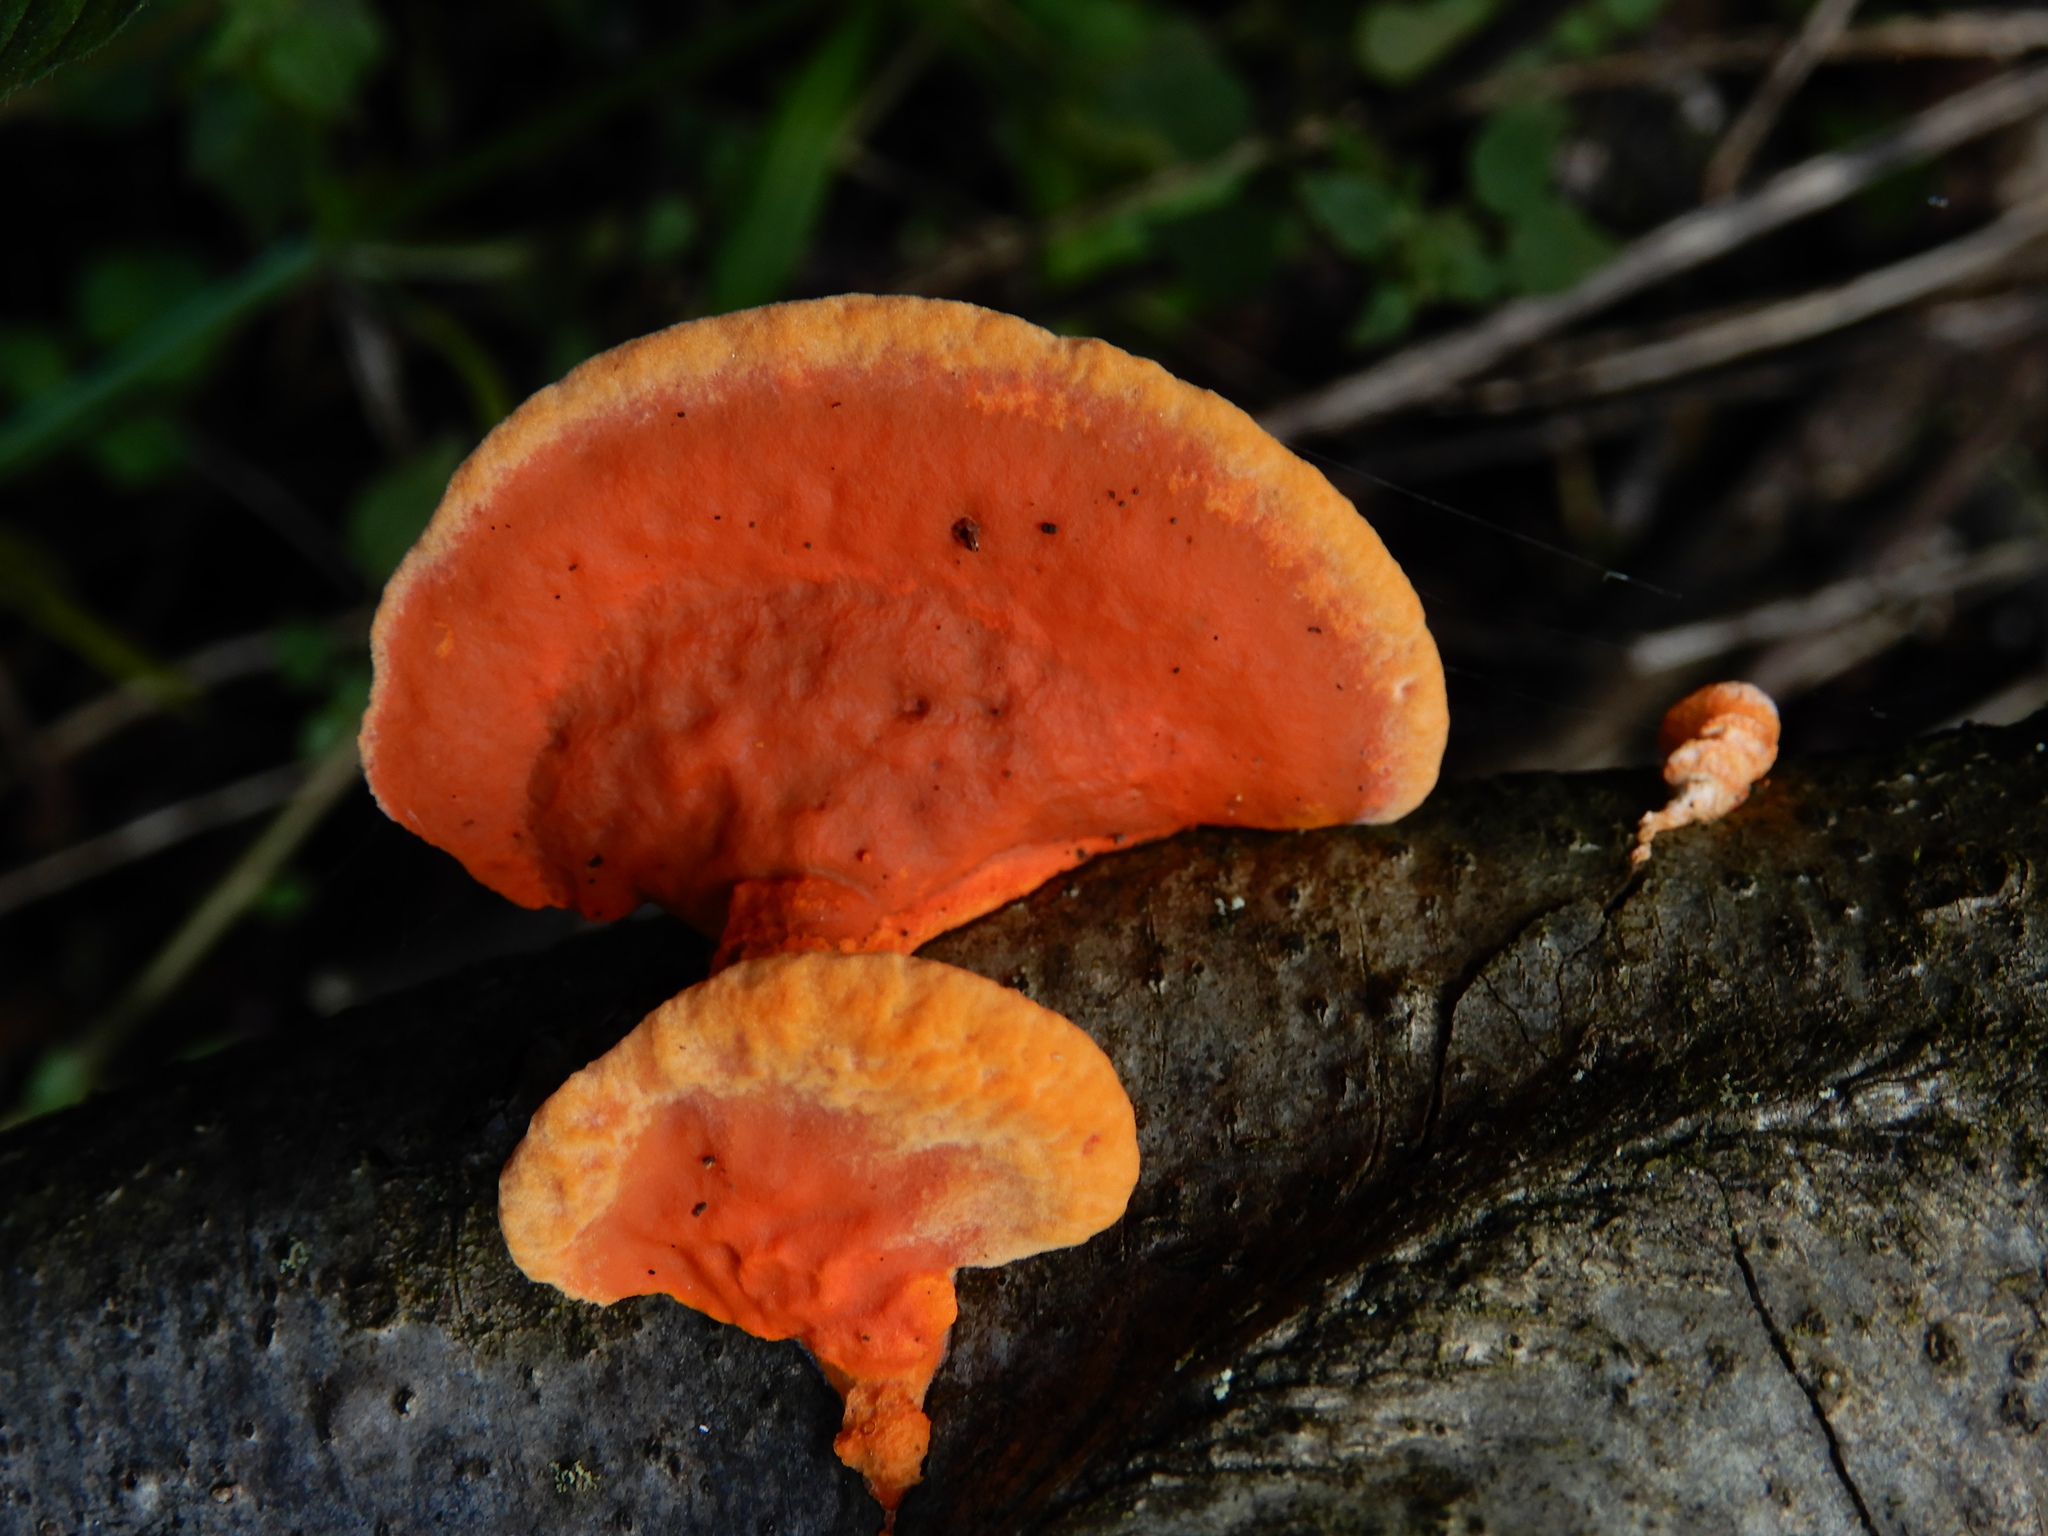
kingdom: Fungi
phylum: Basidiomycota
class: Agaricomycetes
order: Polyporales
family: Polyporaceae
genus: Trametes
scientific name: Trametes coccinea
